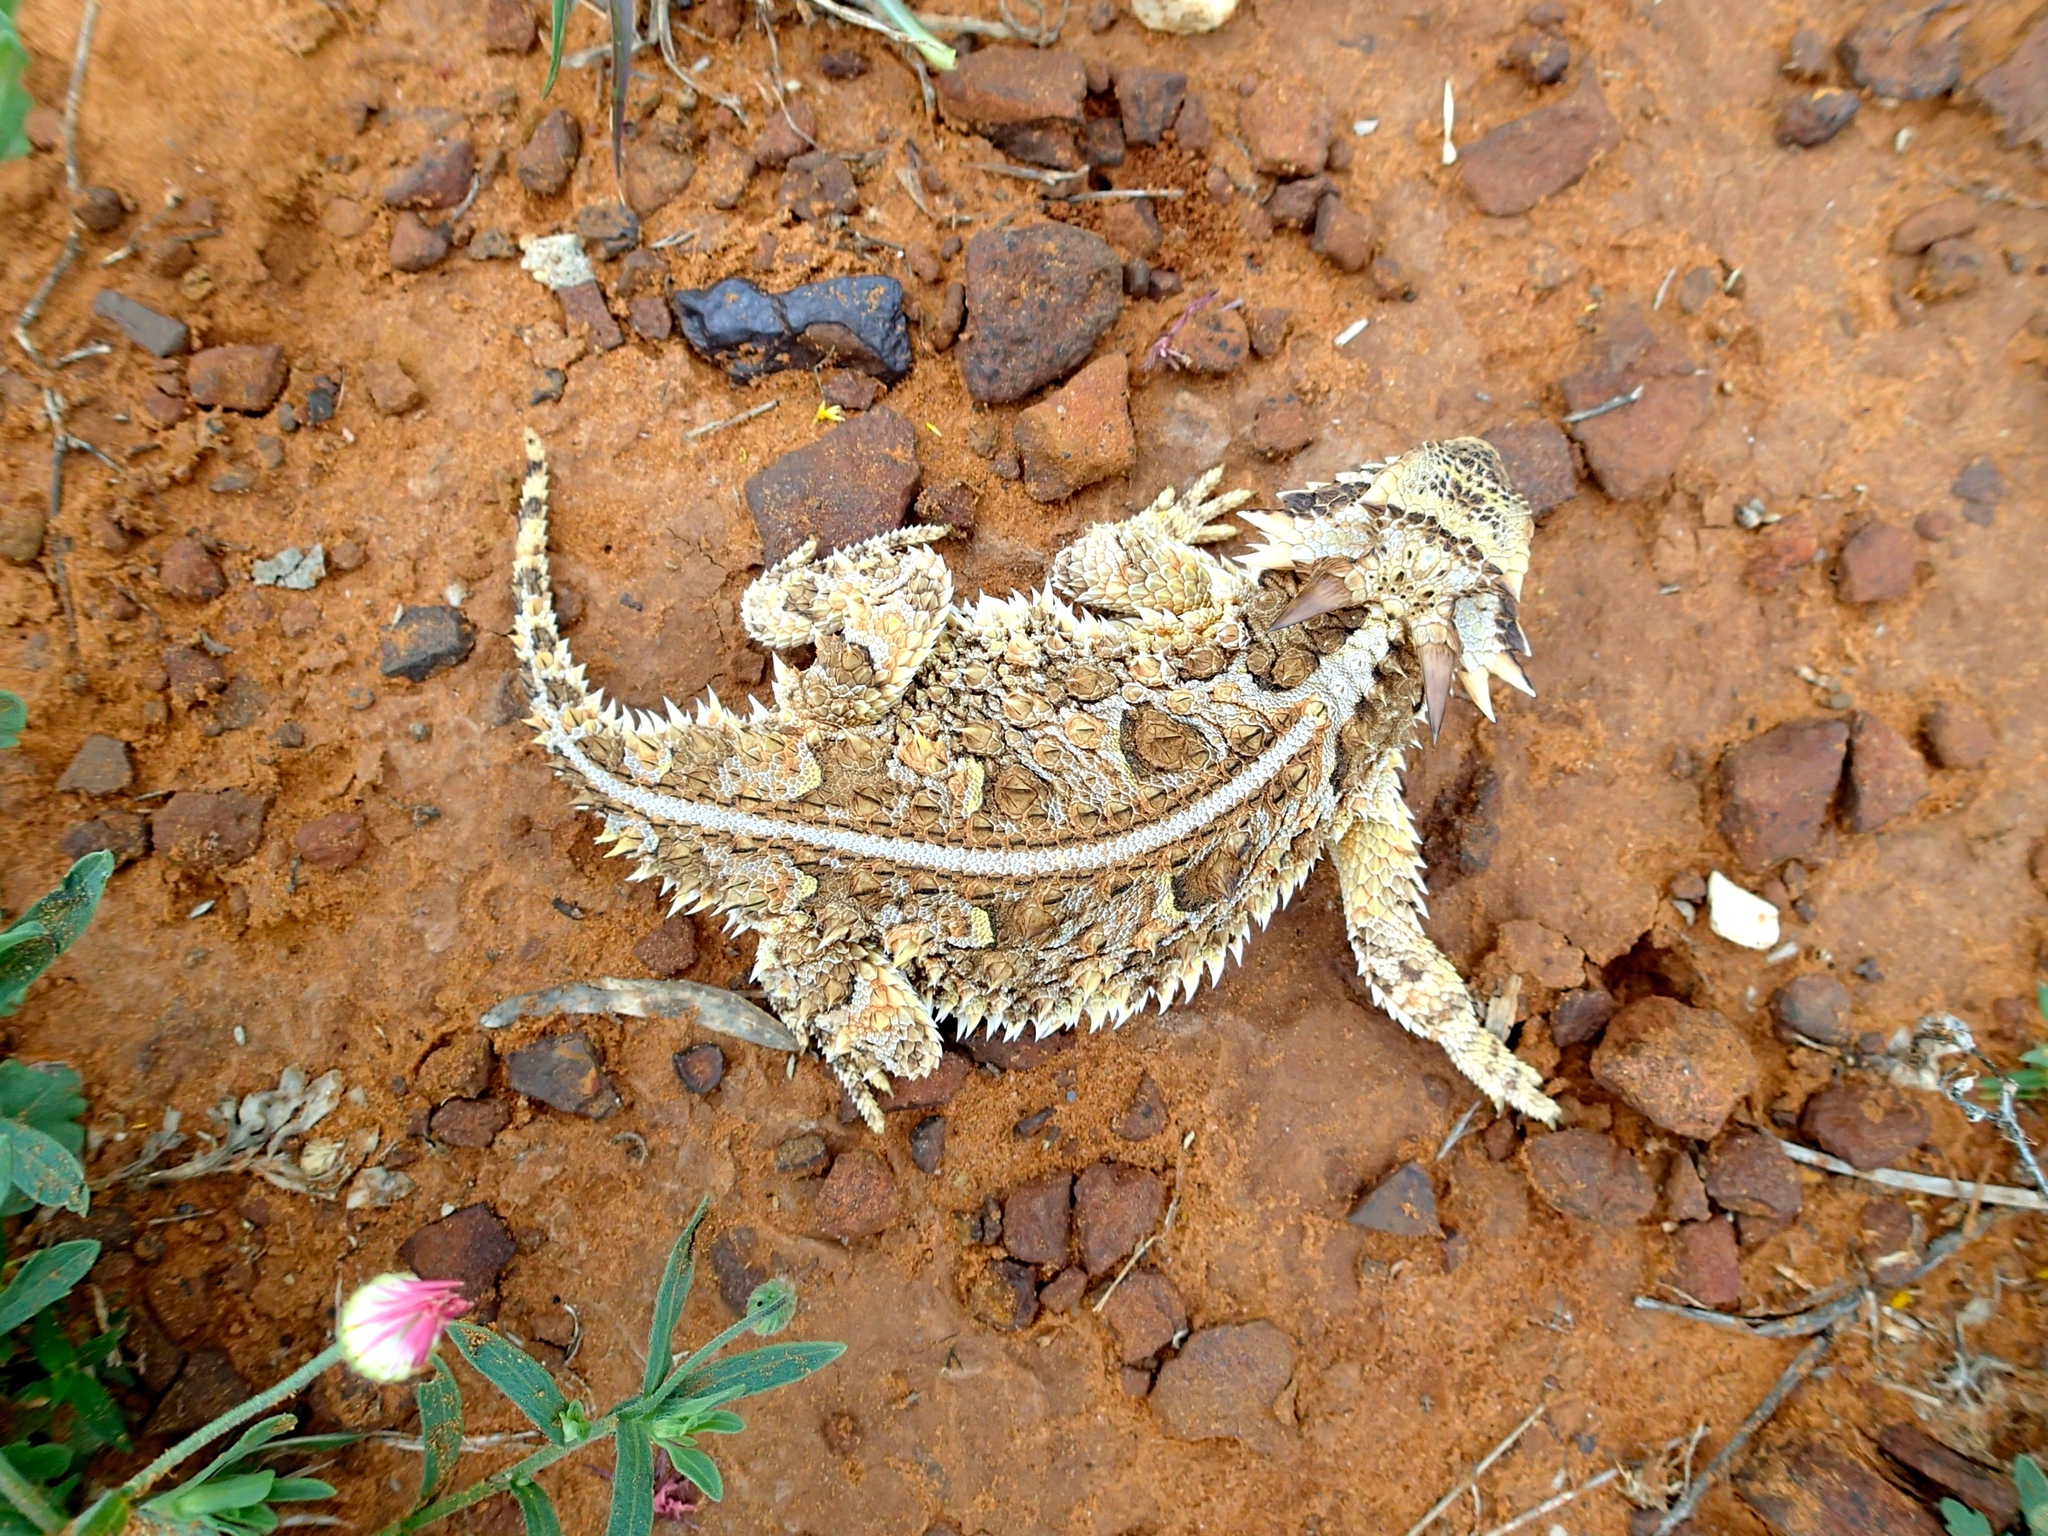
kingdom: Animalia
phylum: Chordata
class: Squamata
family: Phrynosomatidae
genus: Phrynosoma
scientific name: Phrynosoma cornutum
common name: Texas horned lizard
